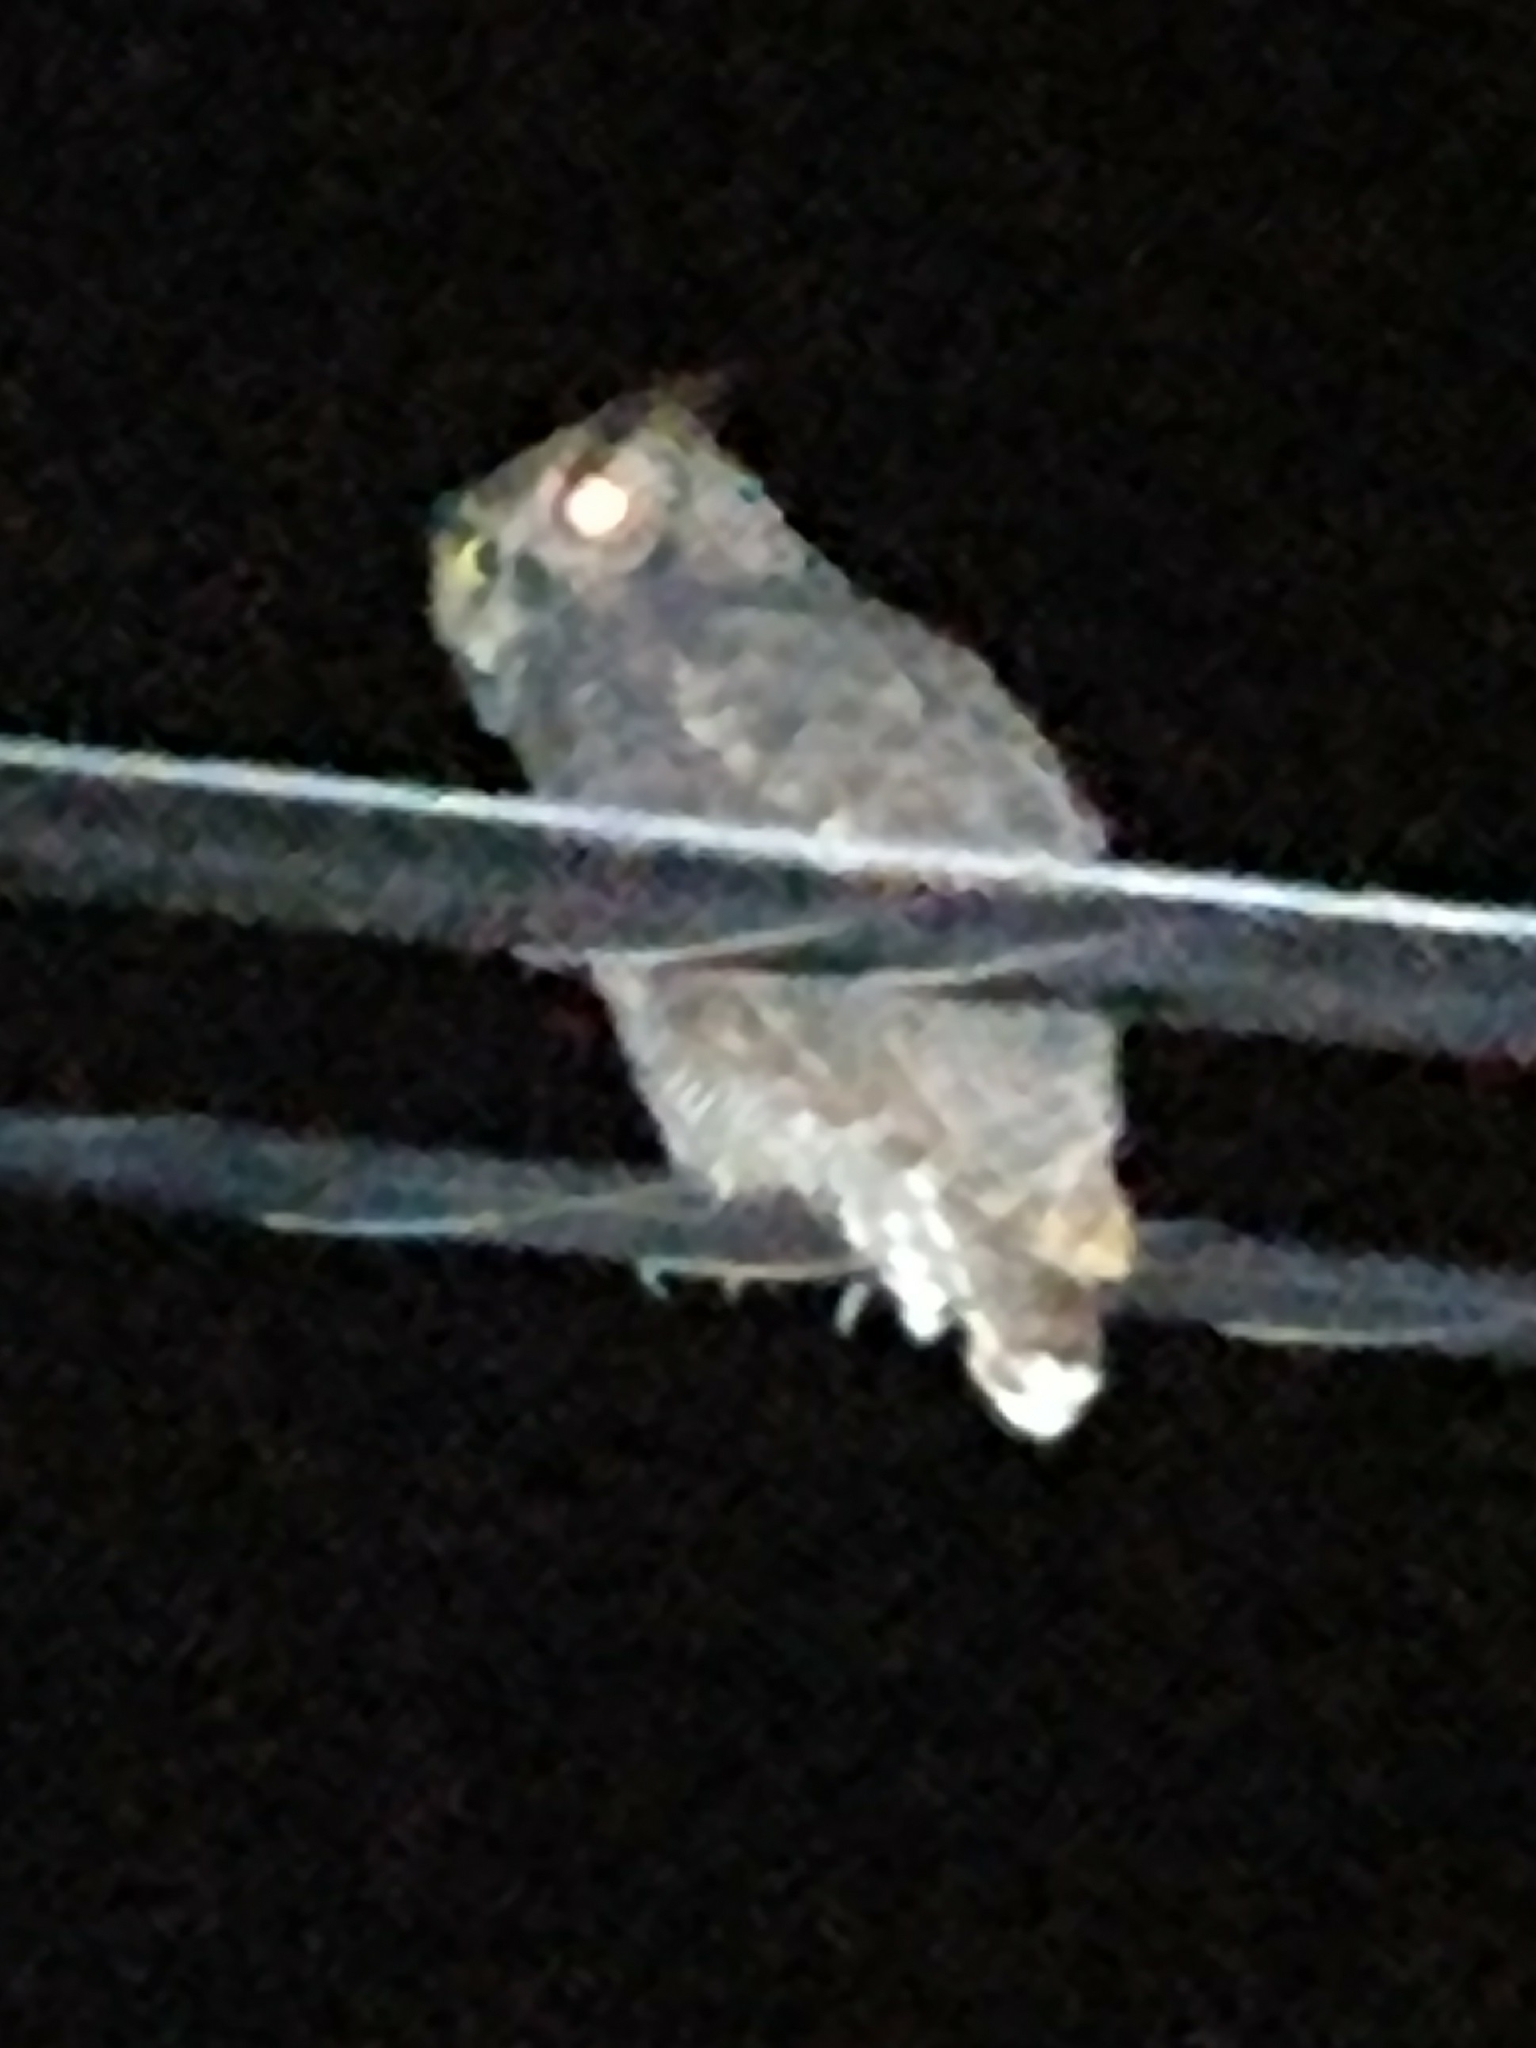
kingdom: Animalia
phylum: Chordata
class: Aves
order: Strigiformes
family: Strigidae
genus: Bubo
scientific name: Bubo virginianus
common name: Great horned owl
